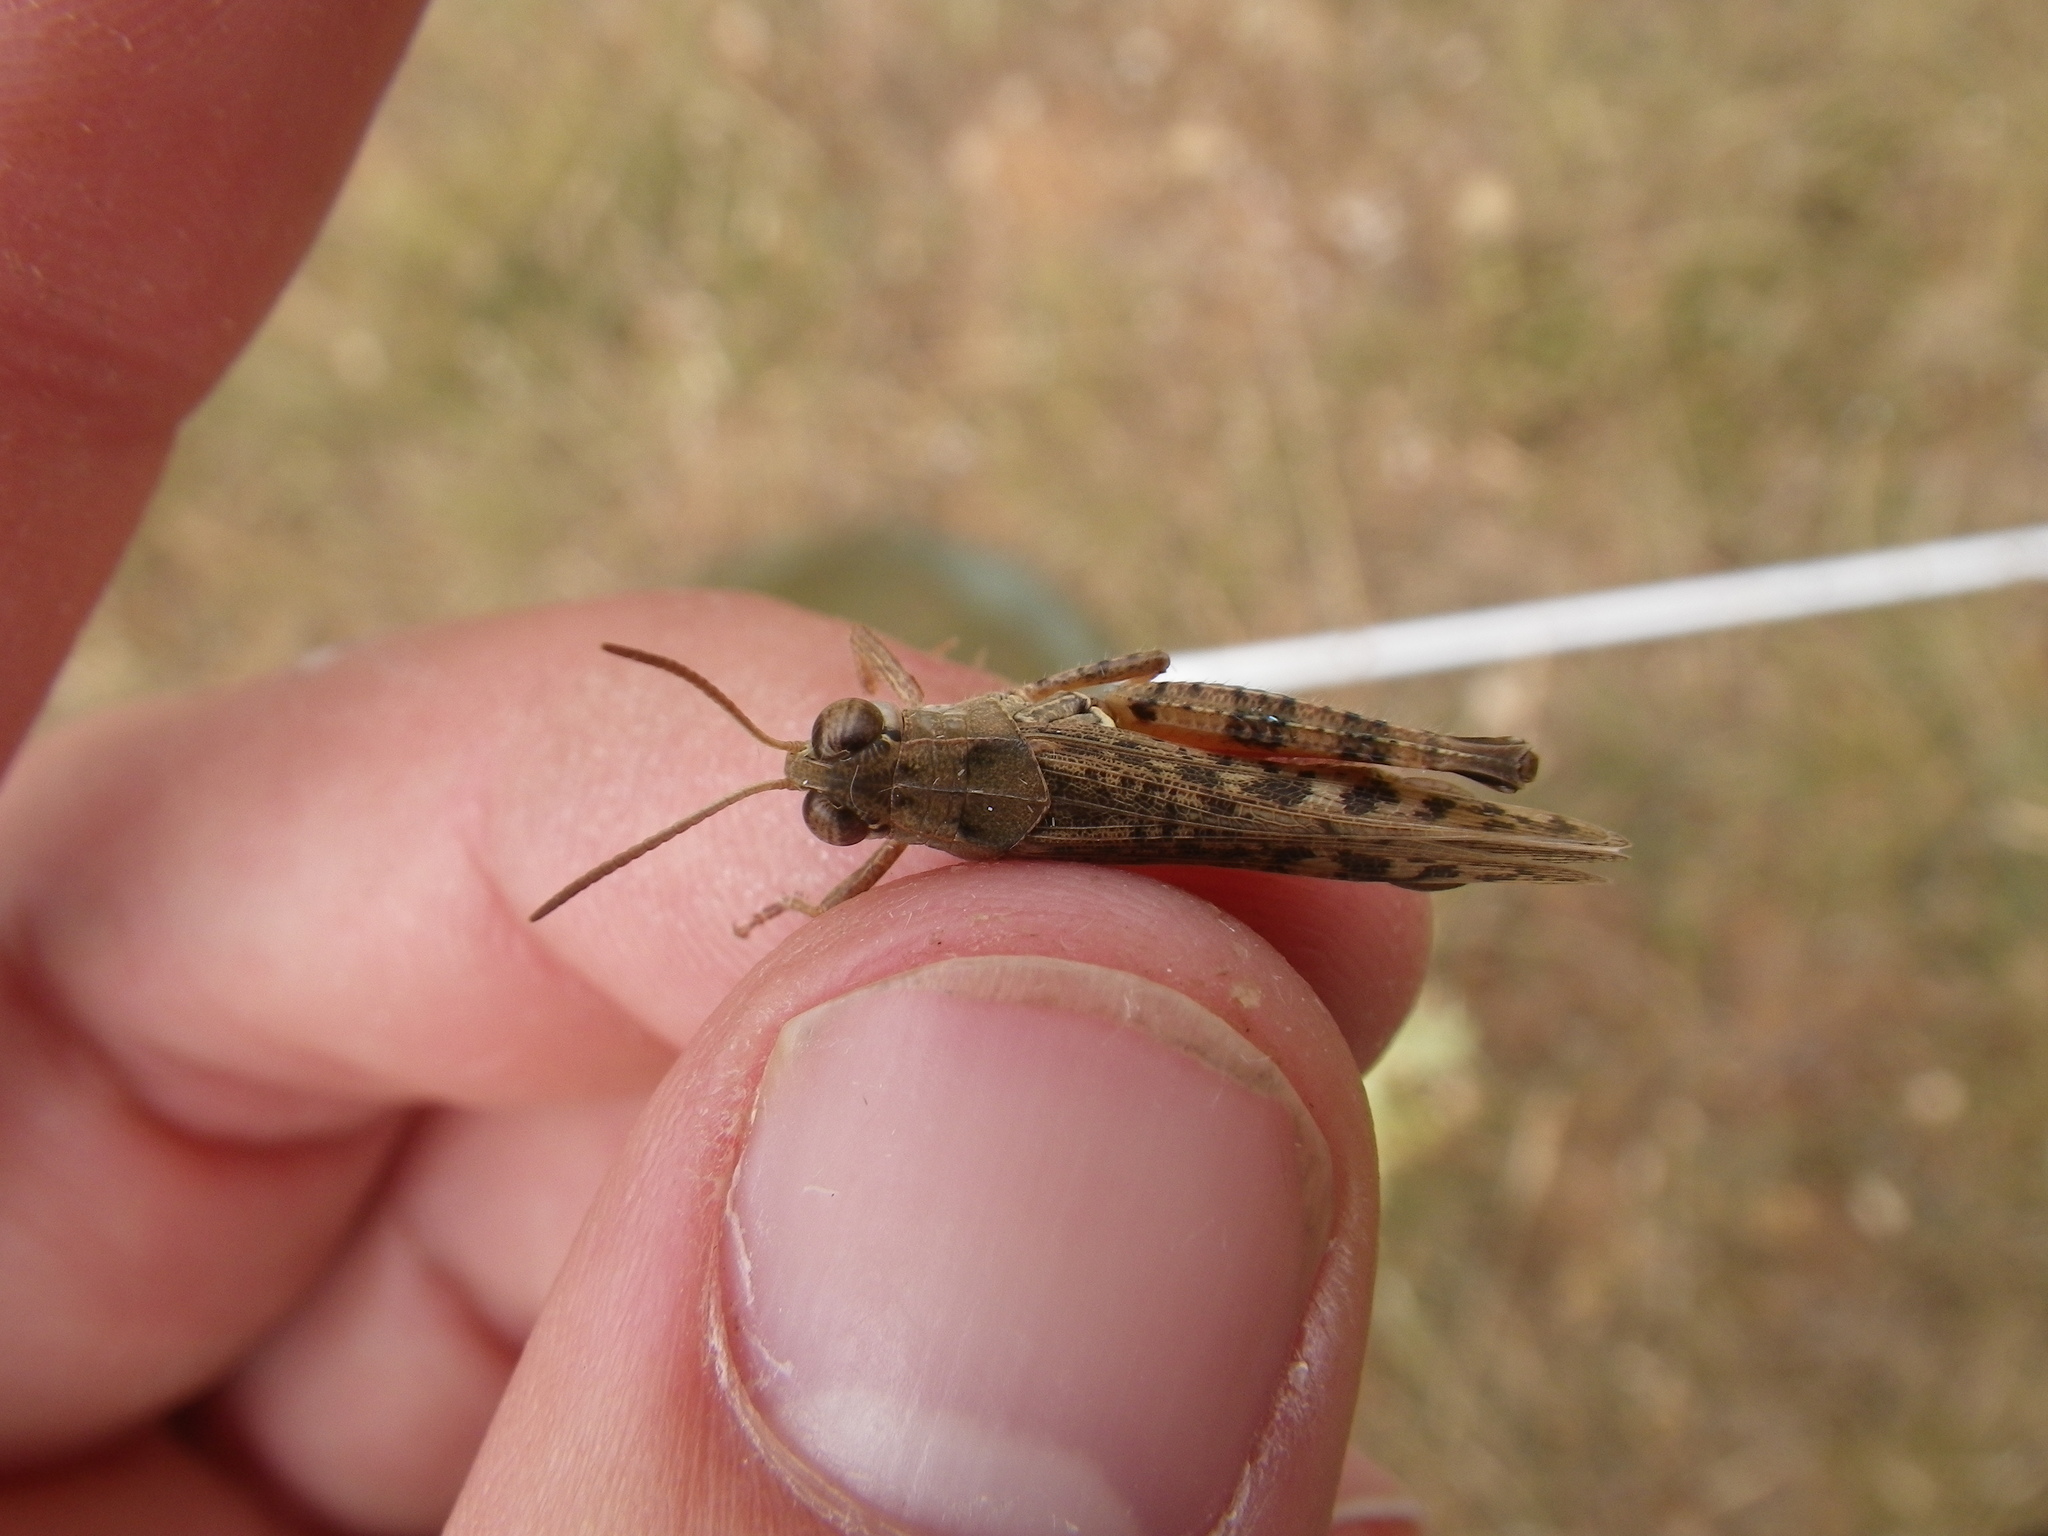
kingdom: Animalia
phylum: Arthropoda
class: Insecta
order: Orthoptera
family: Acrididae
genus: Calliptamus
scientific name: Calliptamus italicus
